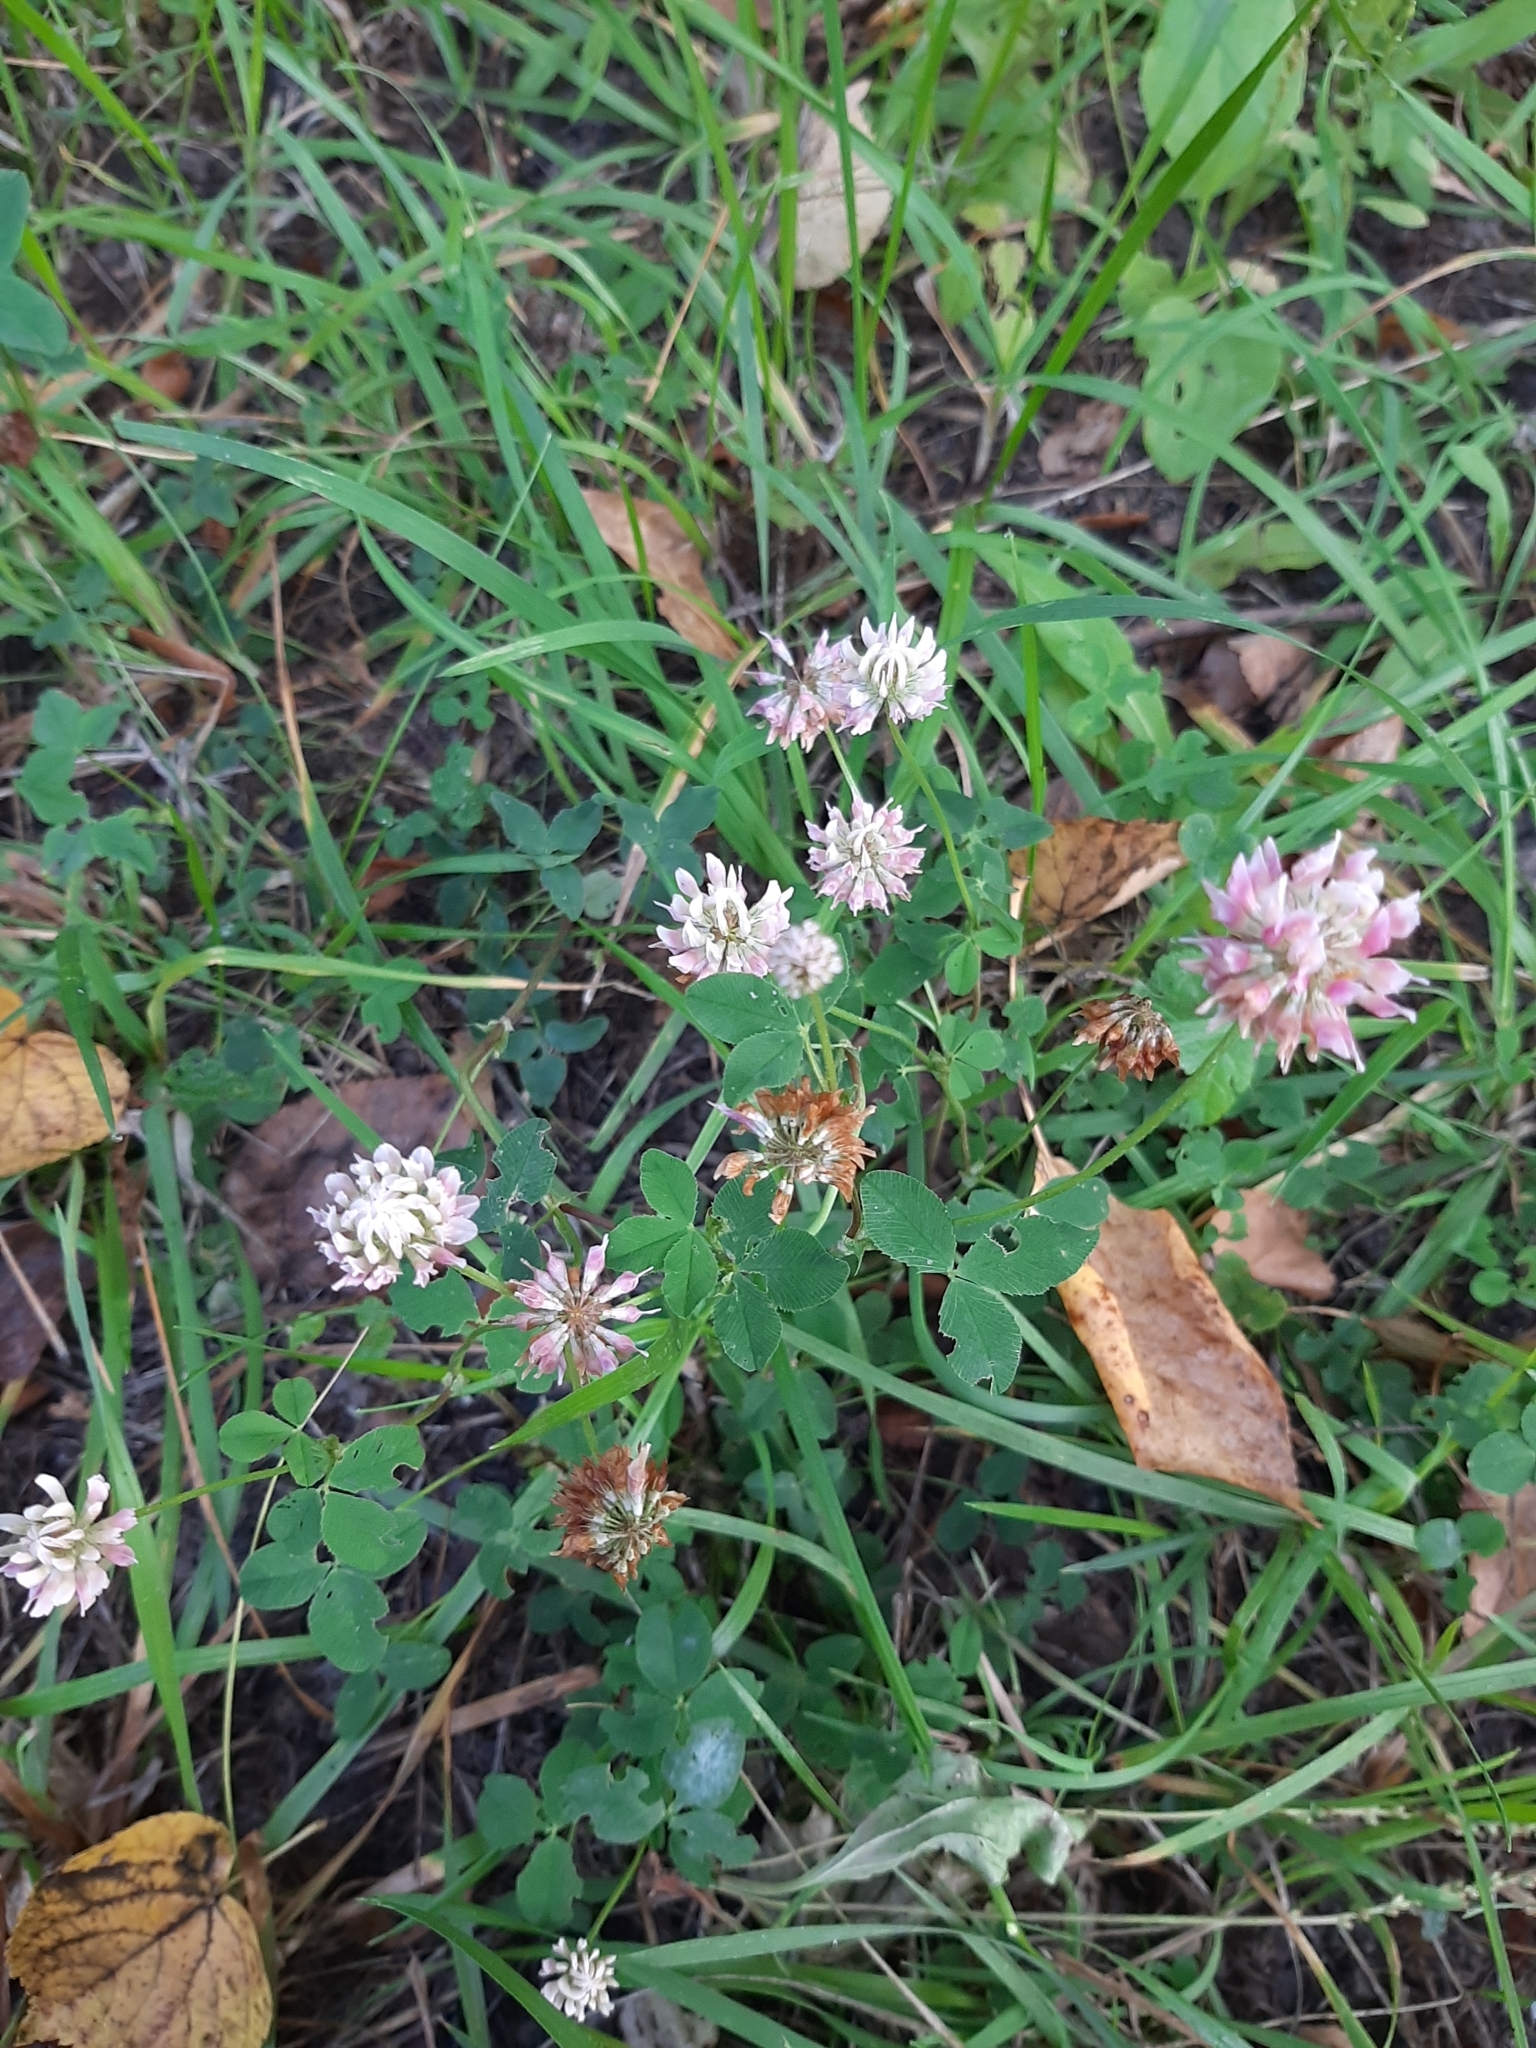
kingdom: Plantae
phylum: Tracheophyta
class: Magnoliopsida
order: Fabales
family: Fabaceae
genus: Trifolium
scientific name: Trifolium hybridum
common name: Alsike clover
